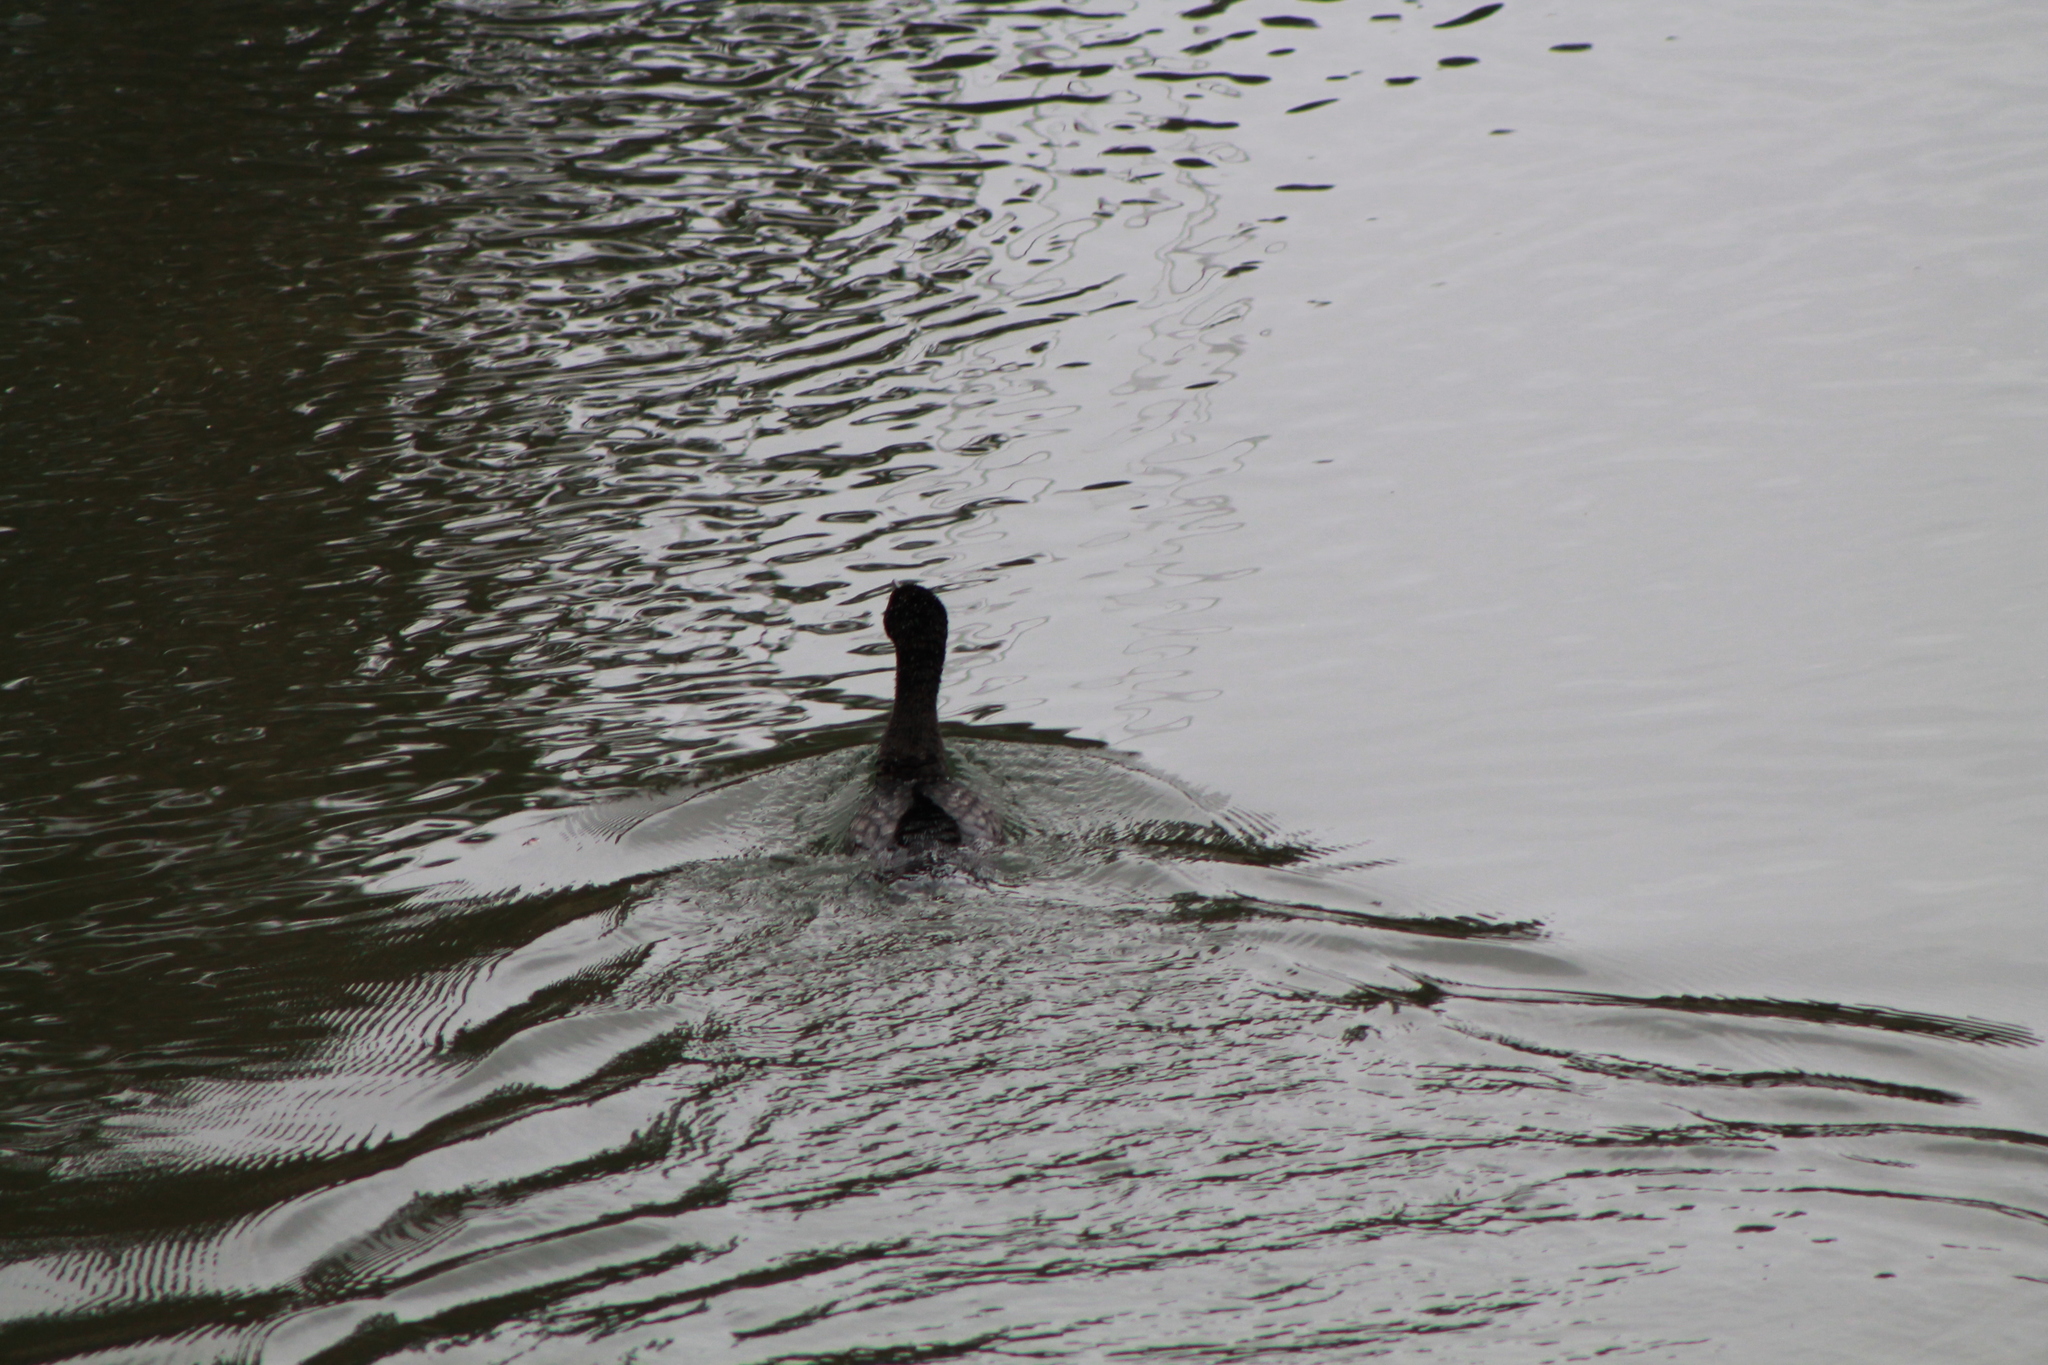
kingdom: Animalia
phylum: Chordata
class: Aves
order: Suliformes
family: Phalacrocoracidae
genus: Phalacrocorax
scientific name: Phalacrocorax sulcirostris
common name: Little black cormorant
